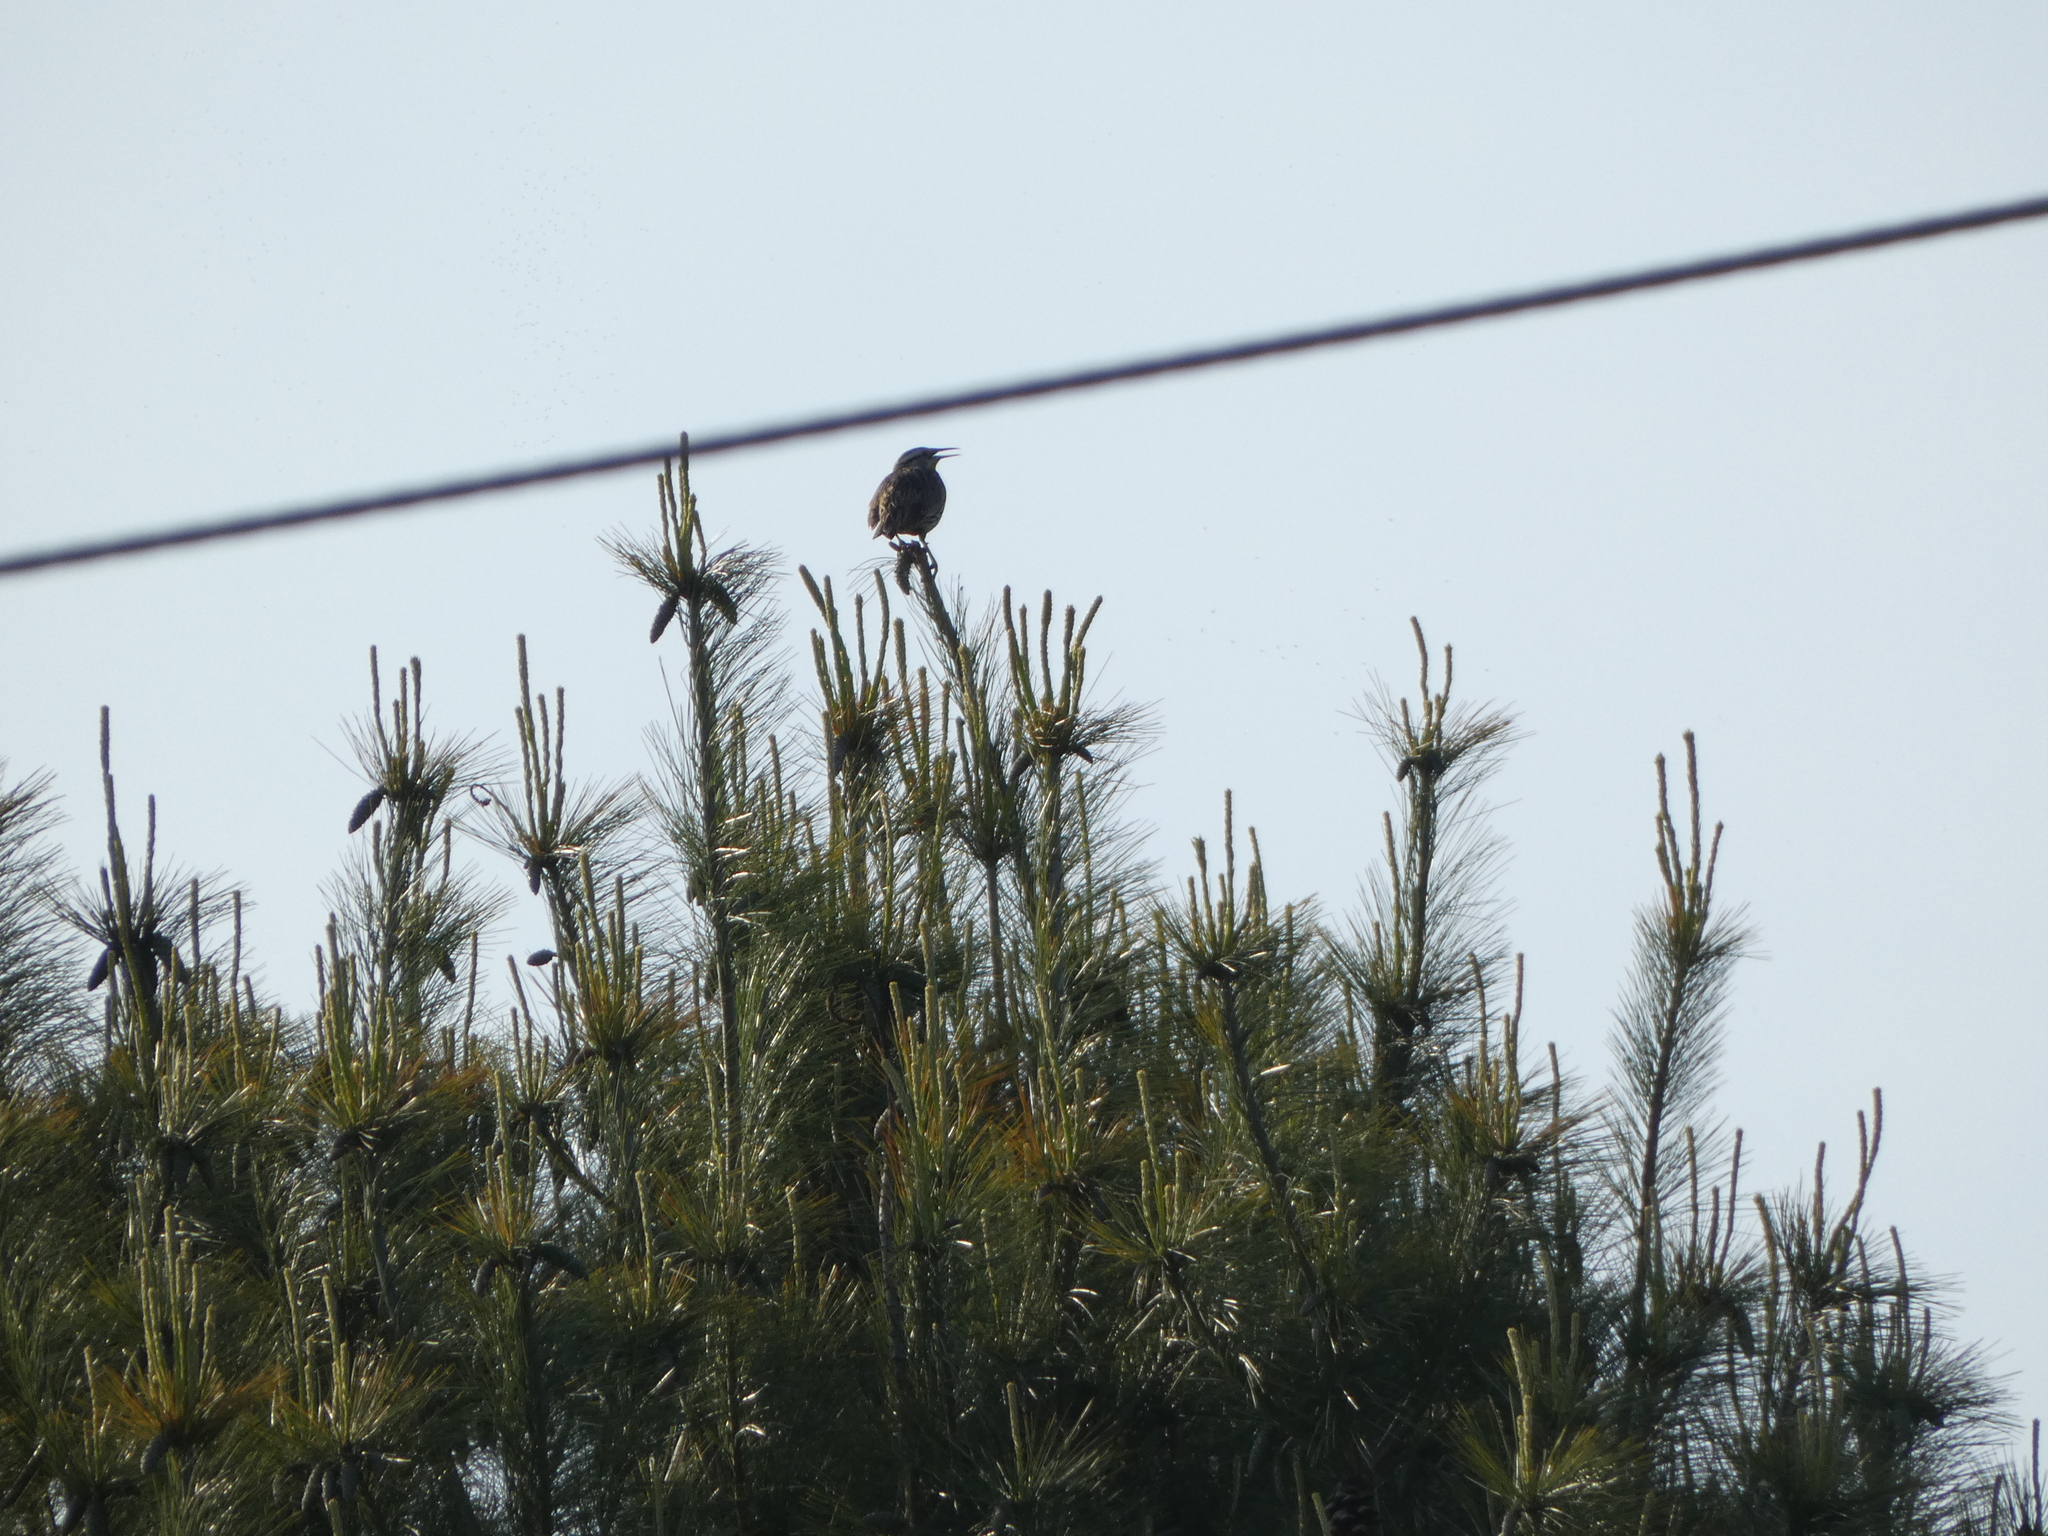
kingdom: Animalia
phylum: Chordata
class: Aves
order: Passeriformes
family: Icteridae
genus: Sturnella
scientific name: Sturnella magna
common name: Eastern meadowlark
